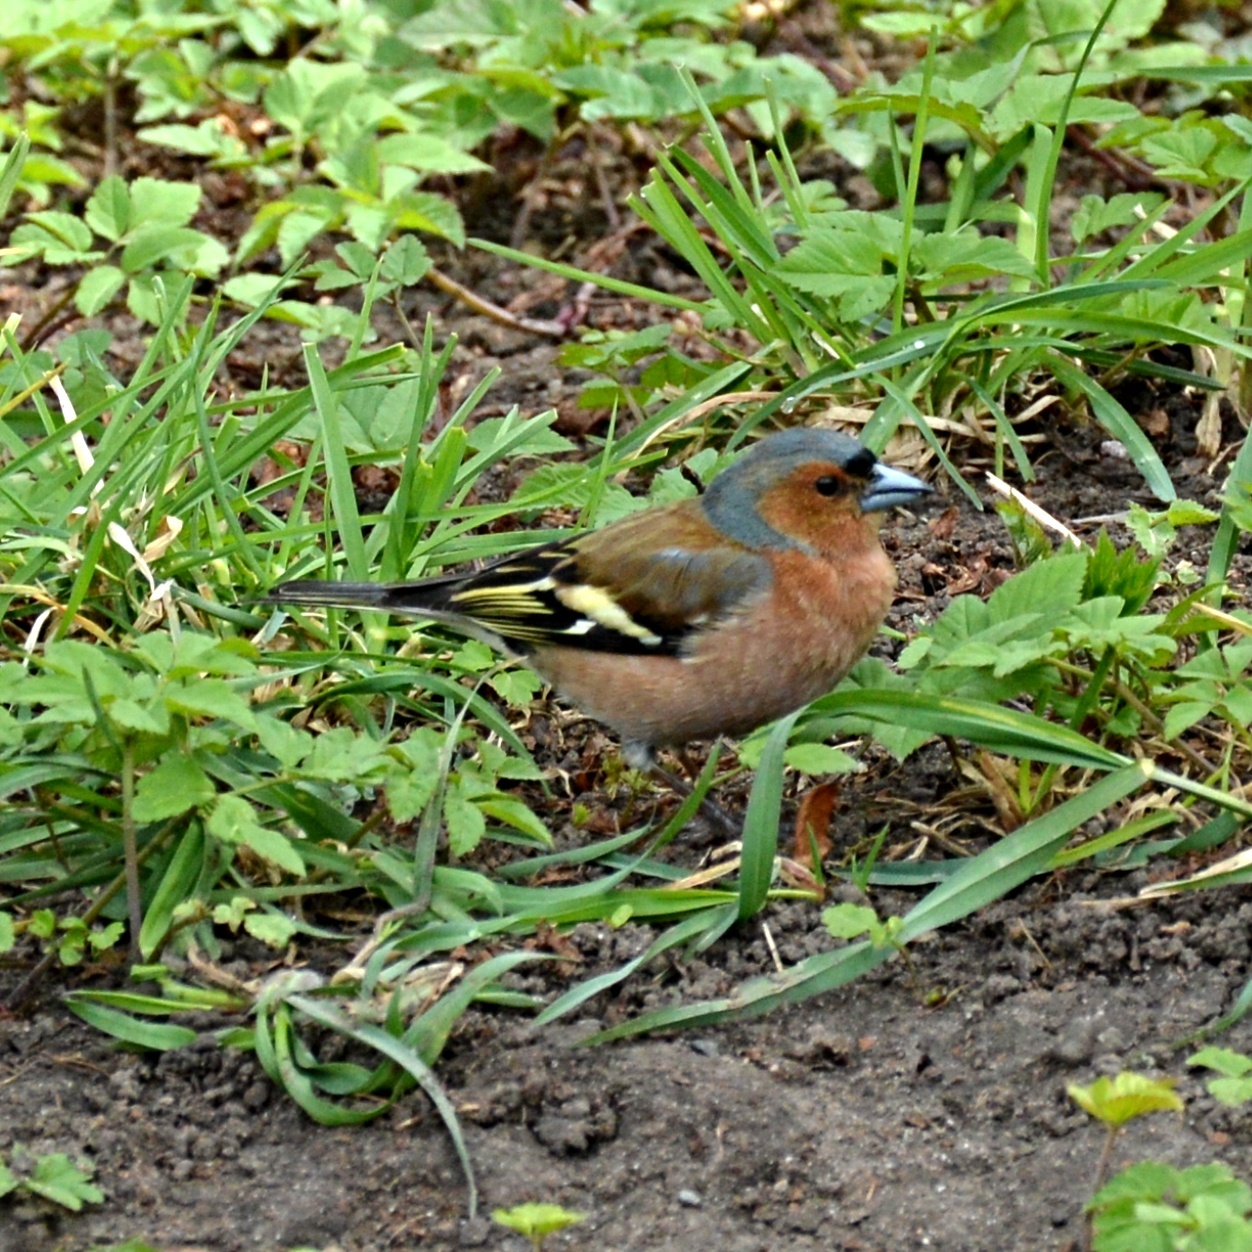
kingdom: Animalia
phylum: Chordata
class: Aves
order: Passeriformes
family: Fringillidae
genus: Fringilla
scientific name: Fringilla coelebs
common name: Common chaffinch
